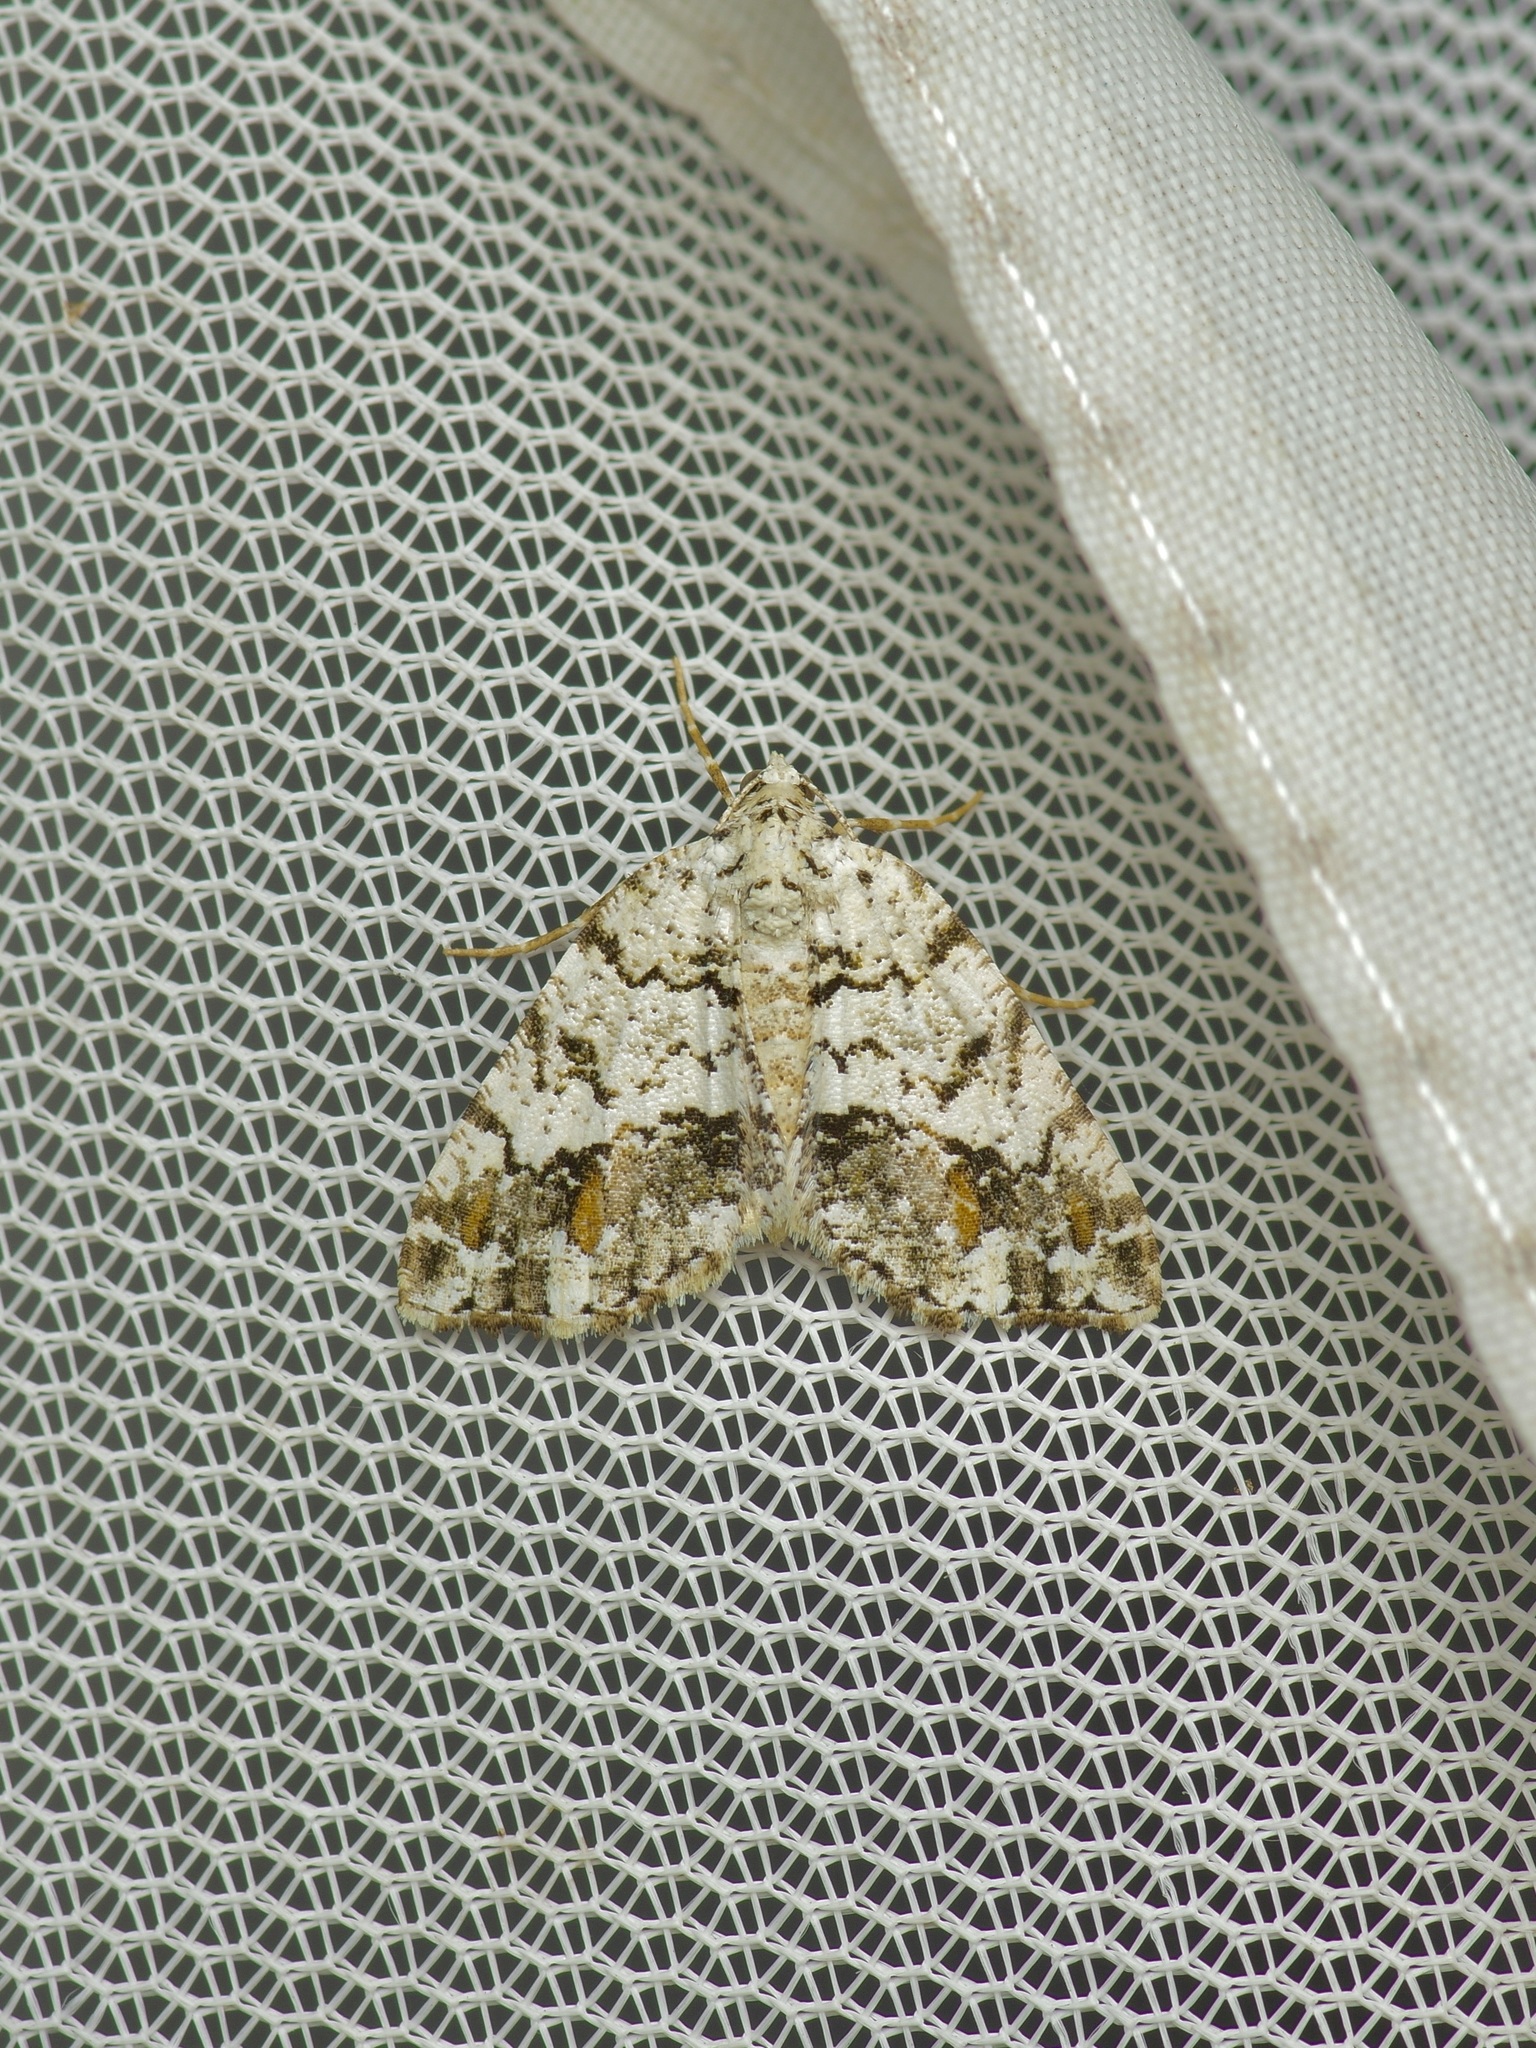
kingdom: Animalia
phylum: Arthropoda
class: Insecta
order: Lepidoptera
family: Geometridae
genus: Macaria
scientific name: Macaria graphidaria
